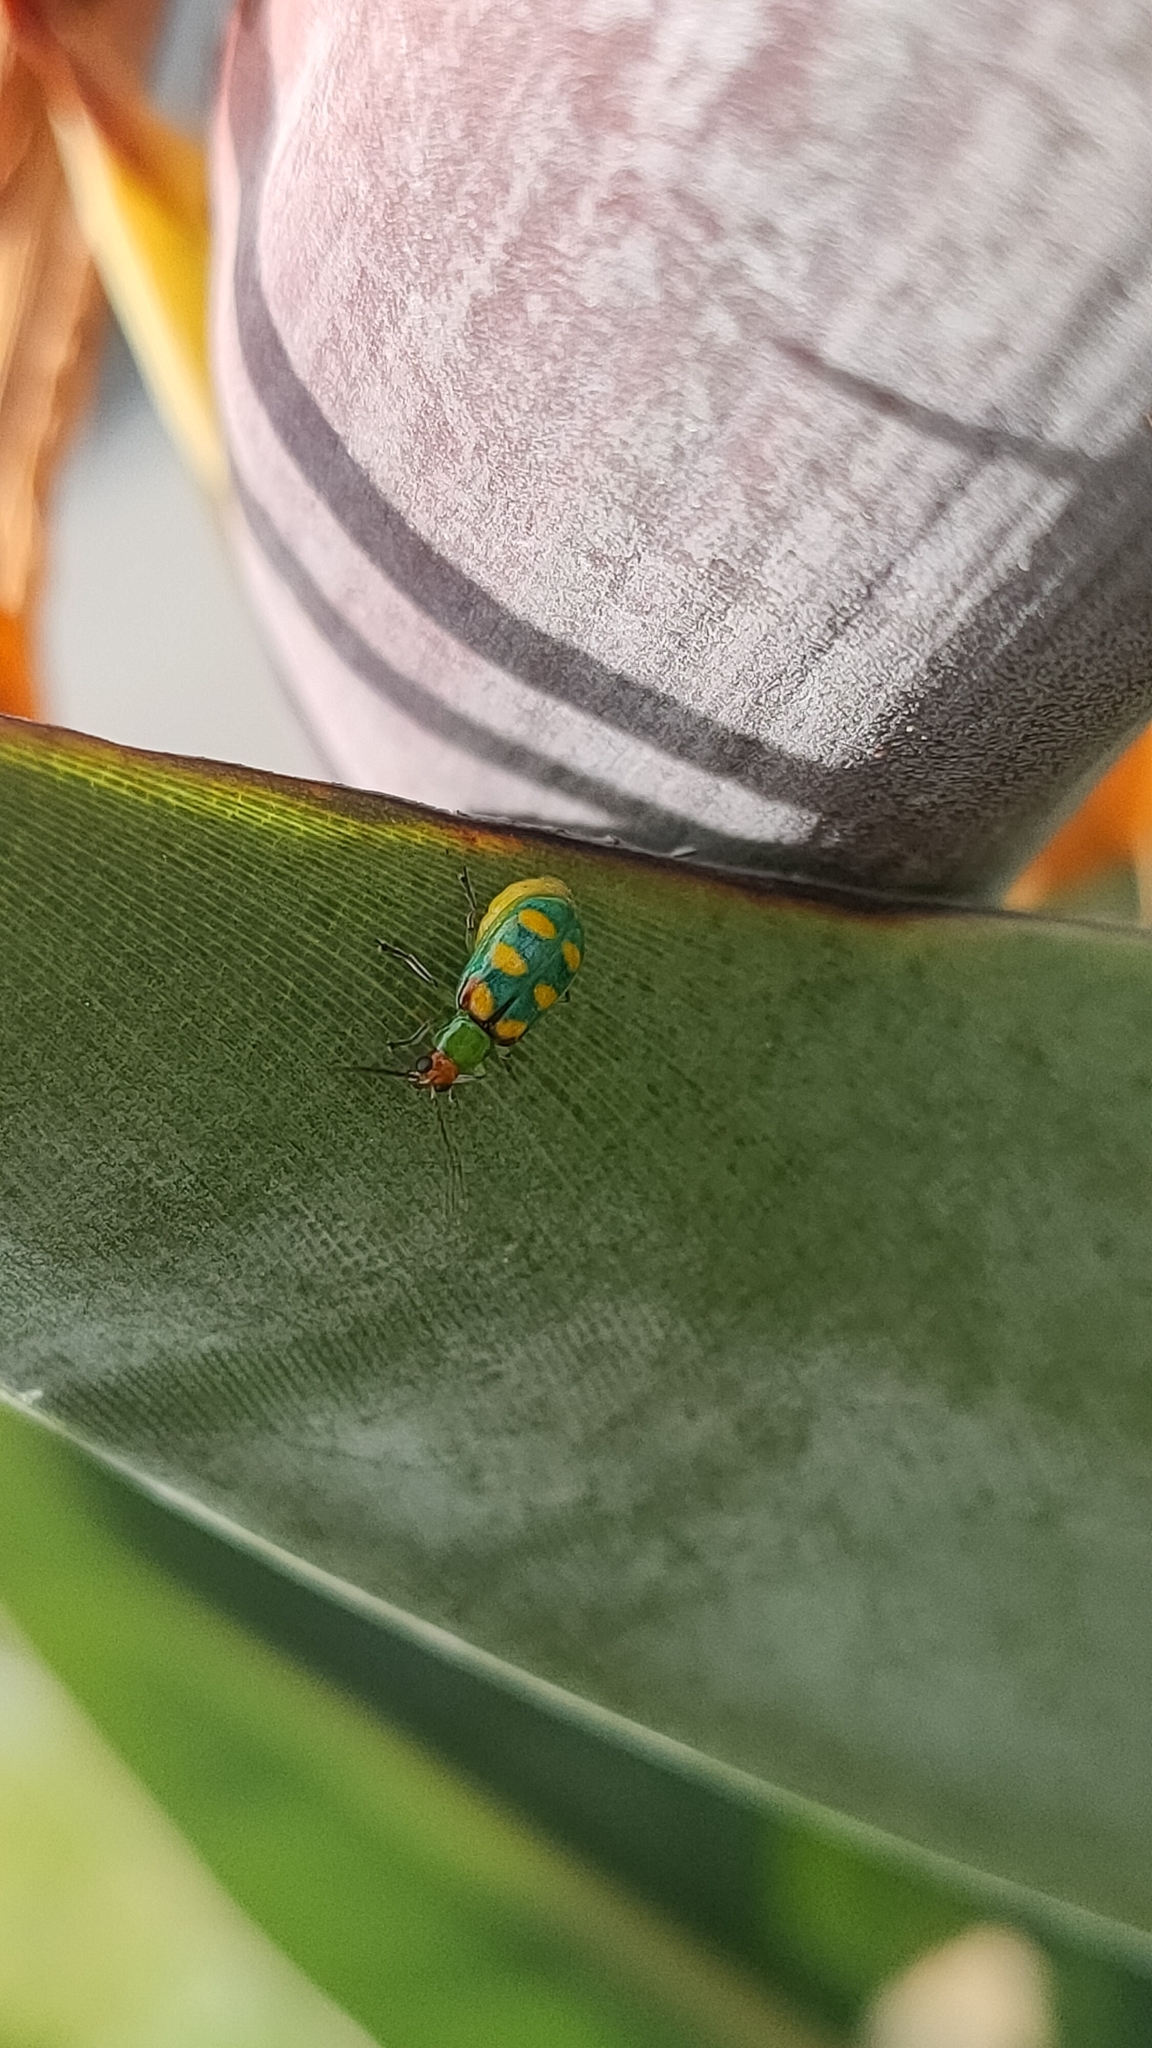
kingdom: Animalia
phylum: Arthropoda
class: Insecta
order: Coleoptera
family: Chrysomelidae
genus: Diabrotica
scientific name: Diabrotica speciosa
